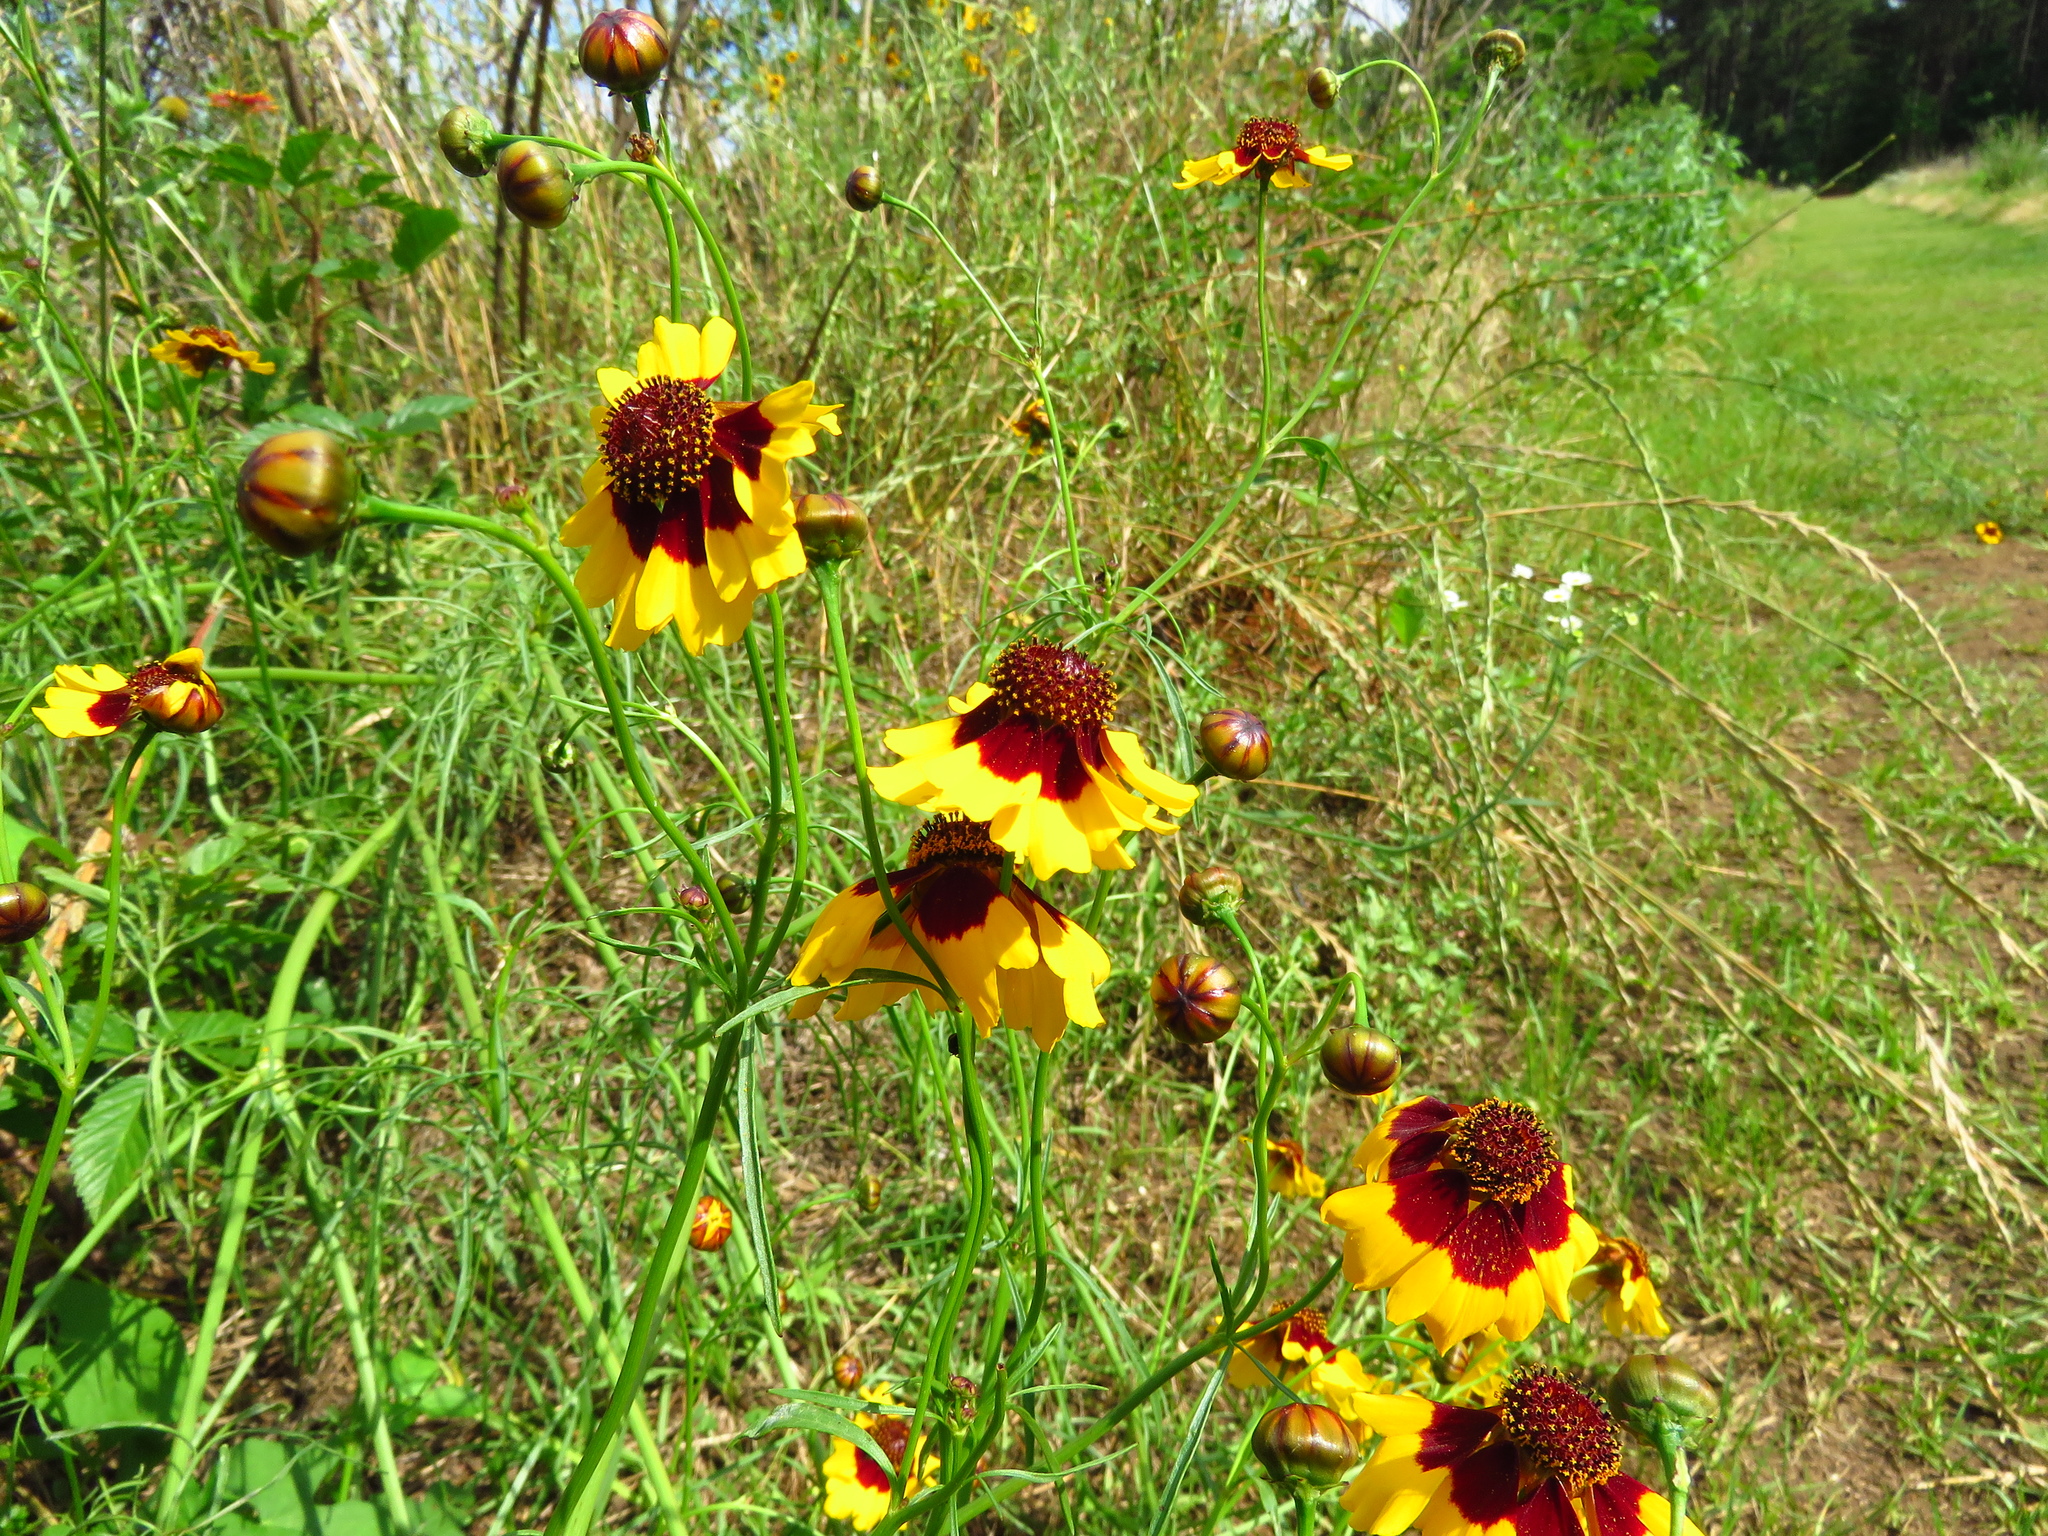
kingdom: Plantae
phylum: Tracheophyta
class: Magnoliopsida
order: Asterales
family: Asteraceae
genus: Coreopsis
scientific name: Coreopsis tinctoria
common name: Garden tickseed
